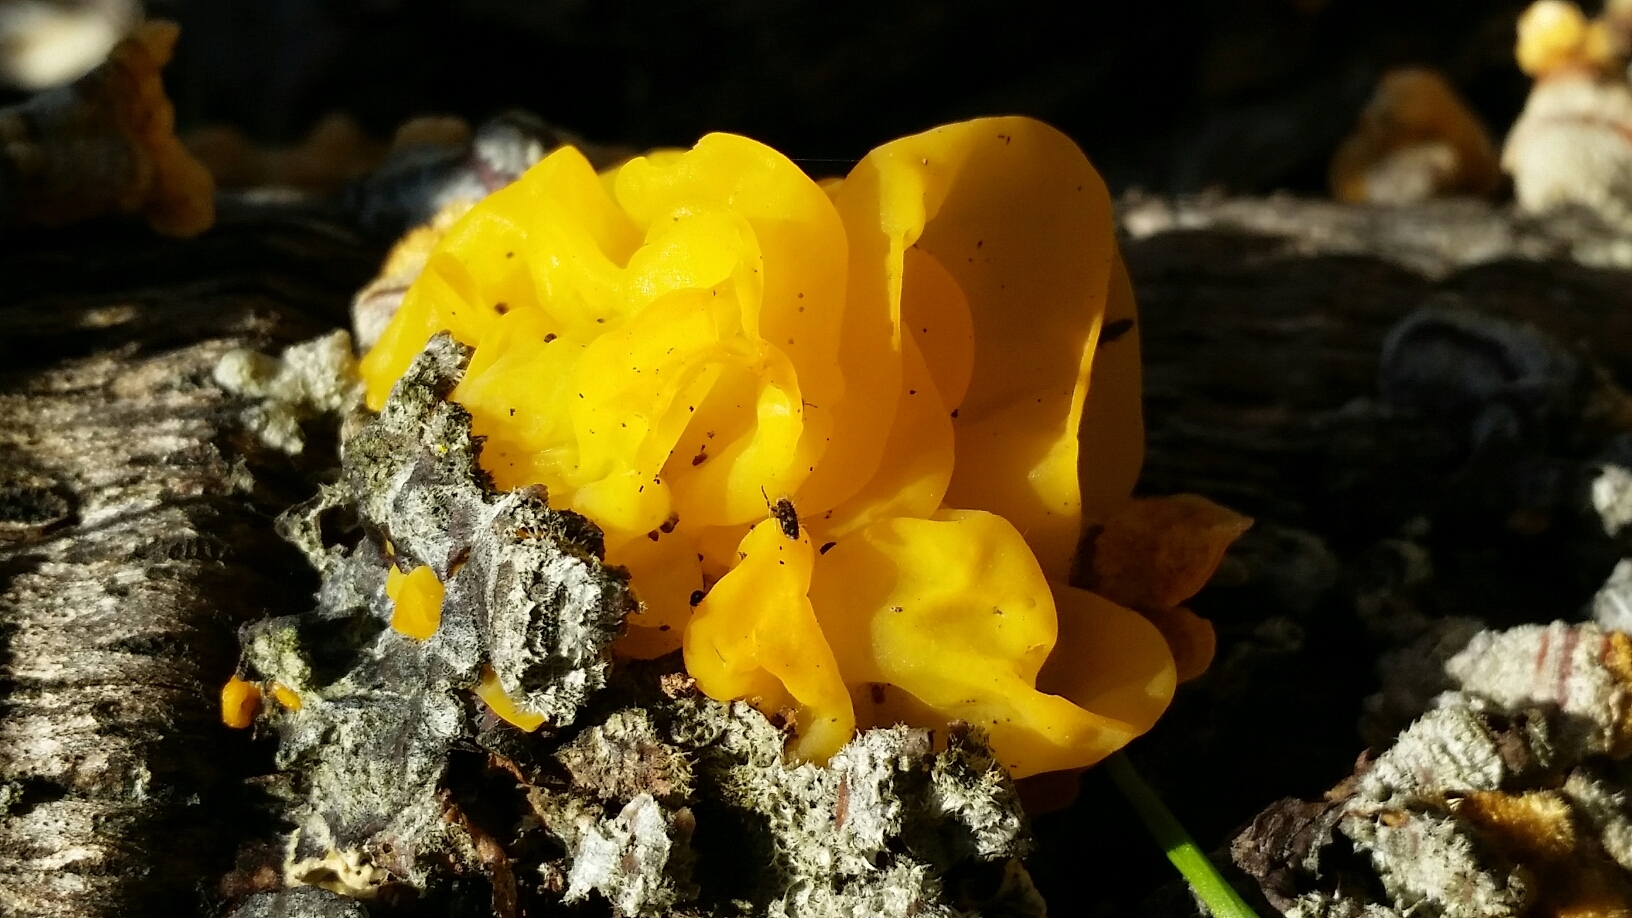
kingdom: Fungi
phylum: Basidiomycota
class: Tremellomycetes
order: Tremellales
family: Naemateliaceae
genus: Naematelia
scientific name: Naematelia aurantia
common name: Golden ear
